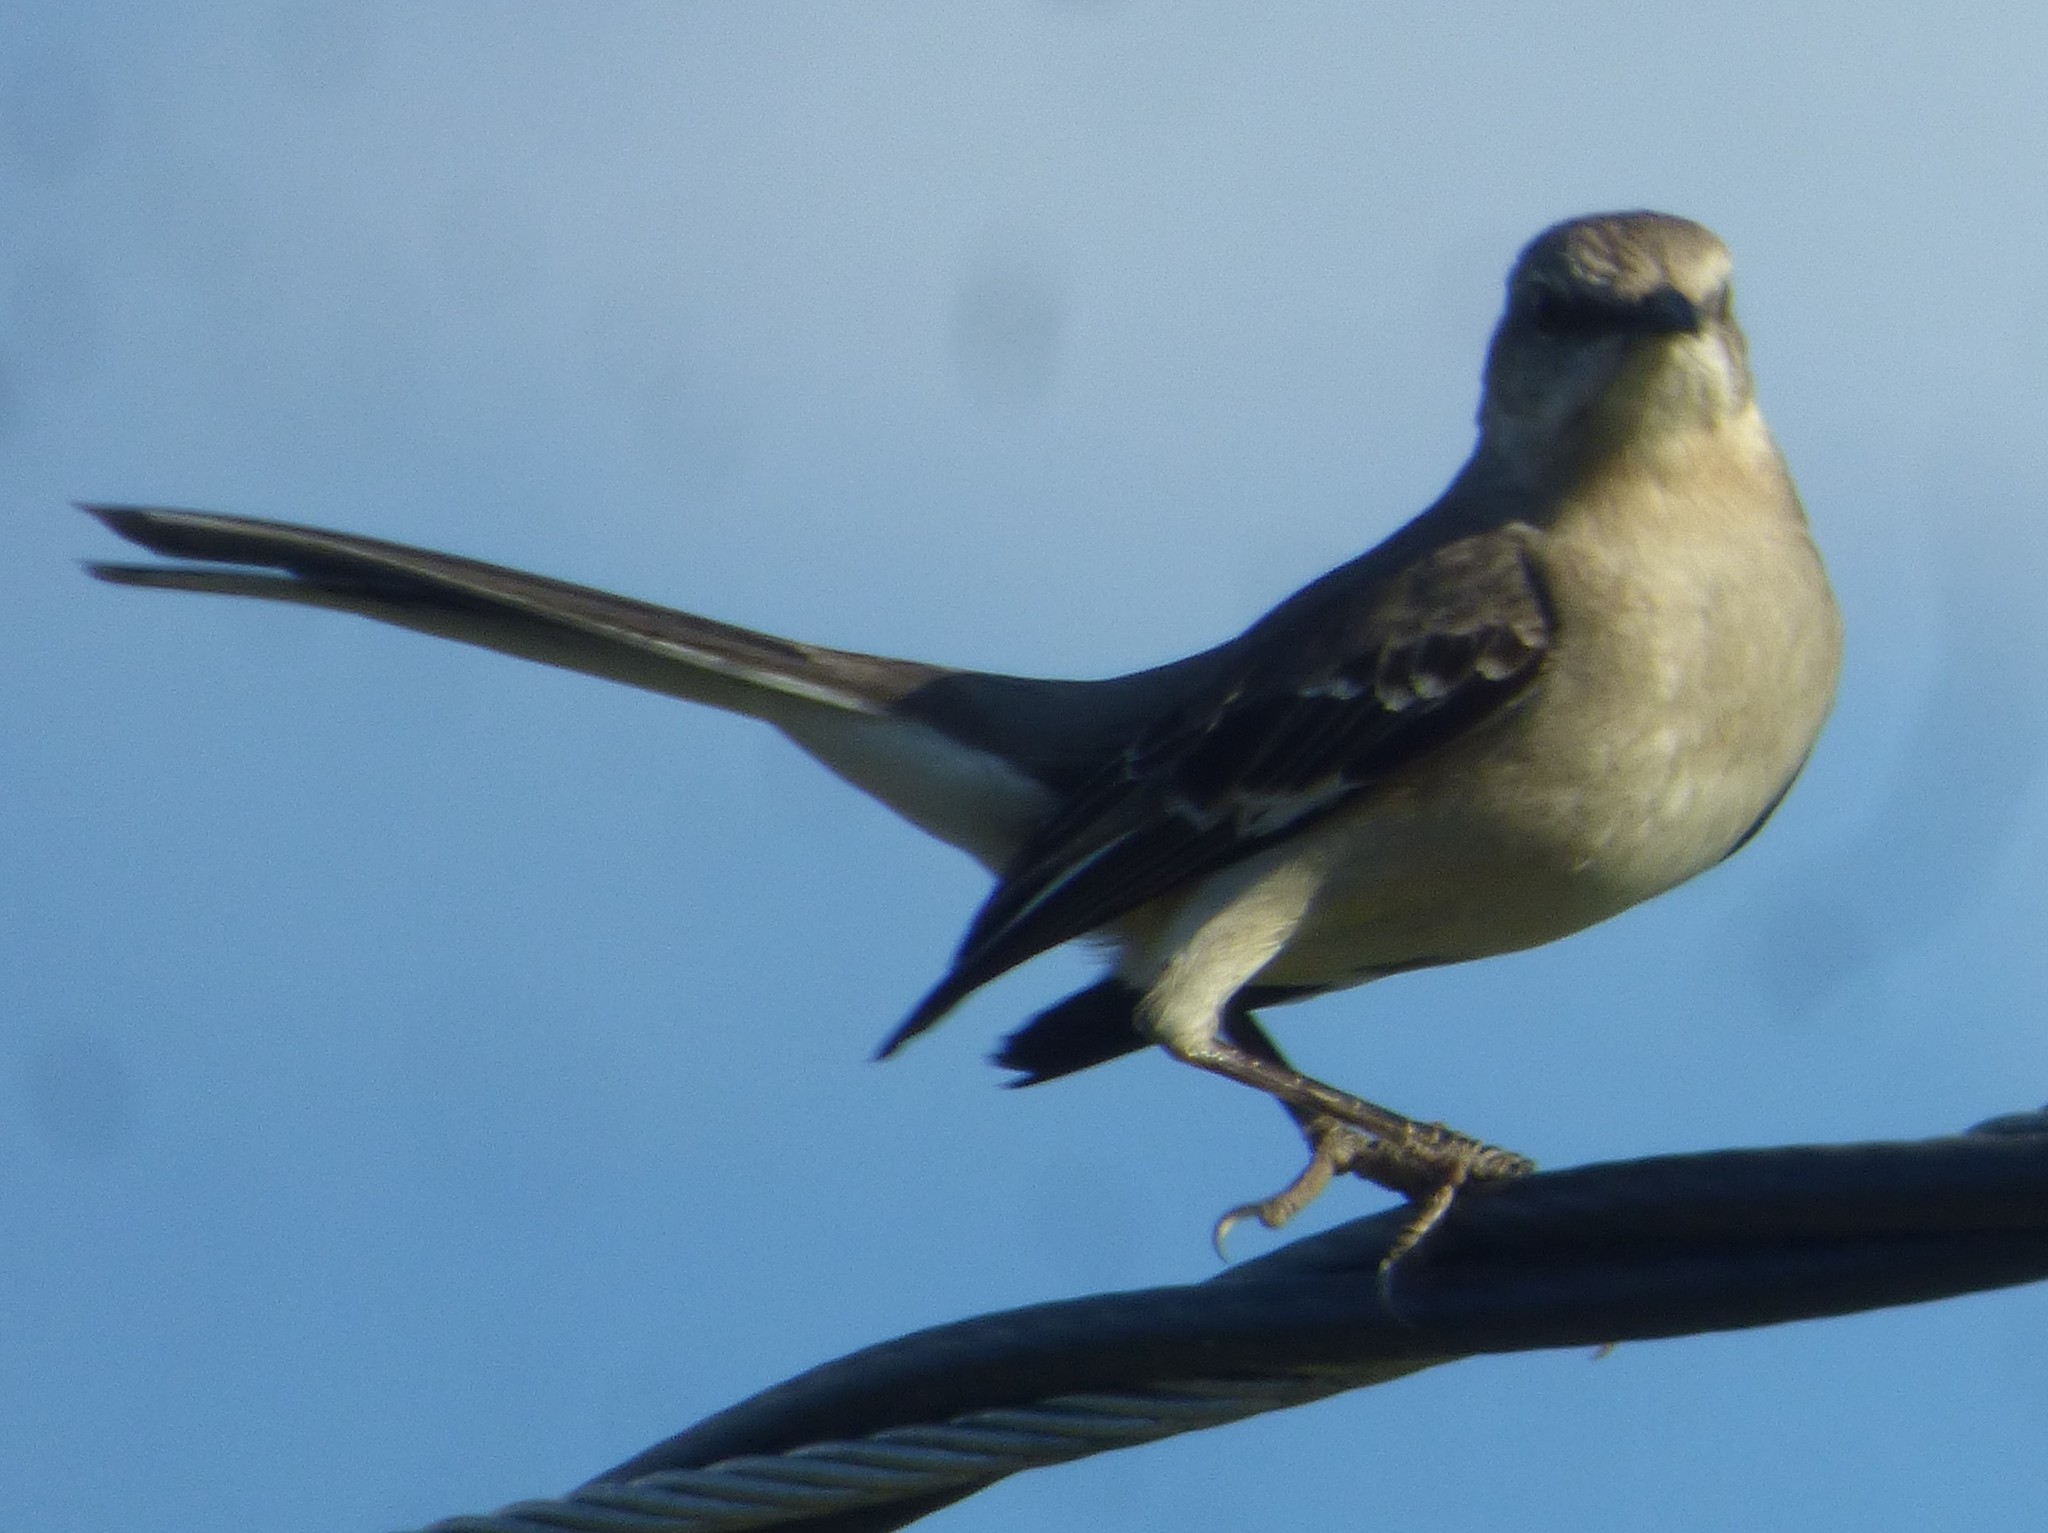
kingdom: Animalia
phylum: Chordata
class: Aves
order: Passeriformes
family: Mimidae
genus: Mimus
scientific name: Mimus polyglottos
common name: Northern mockingbird
